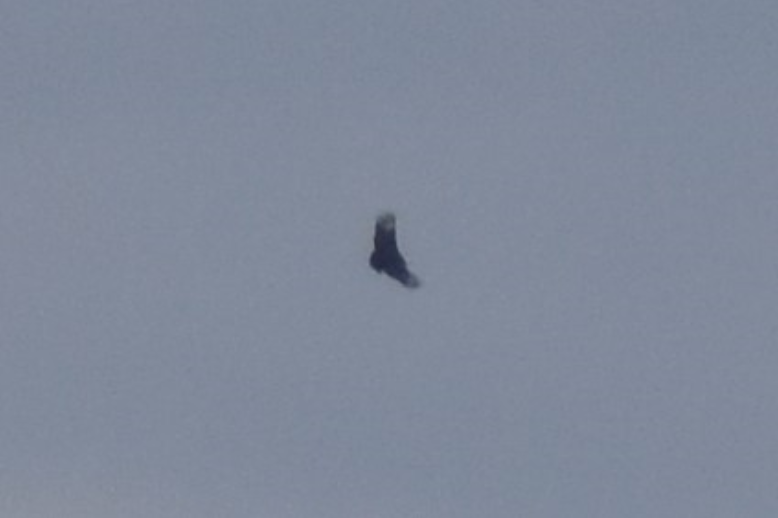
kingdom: Animalia
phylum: Chordata
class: Aves
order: Accipitriformes
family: Cathartidae
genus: Coragyps
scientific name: Coragyps atratus
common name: Black vulture
